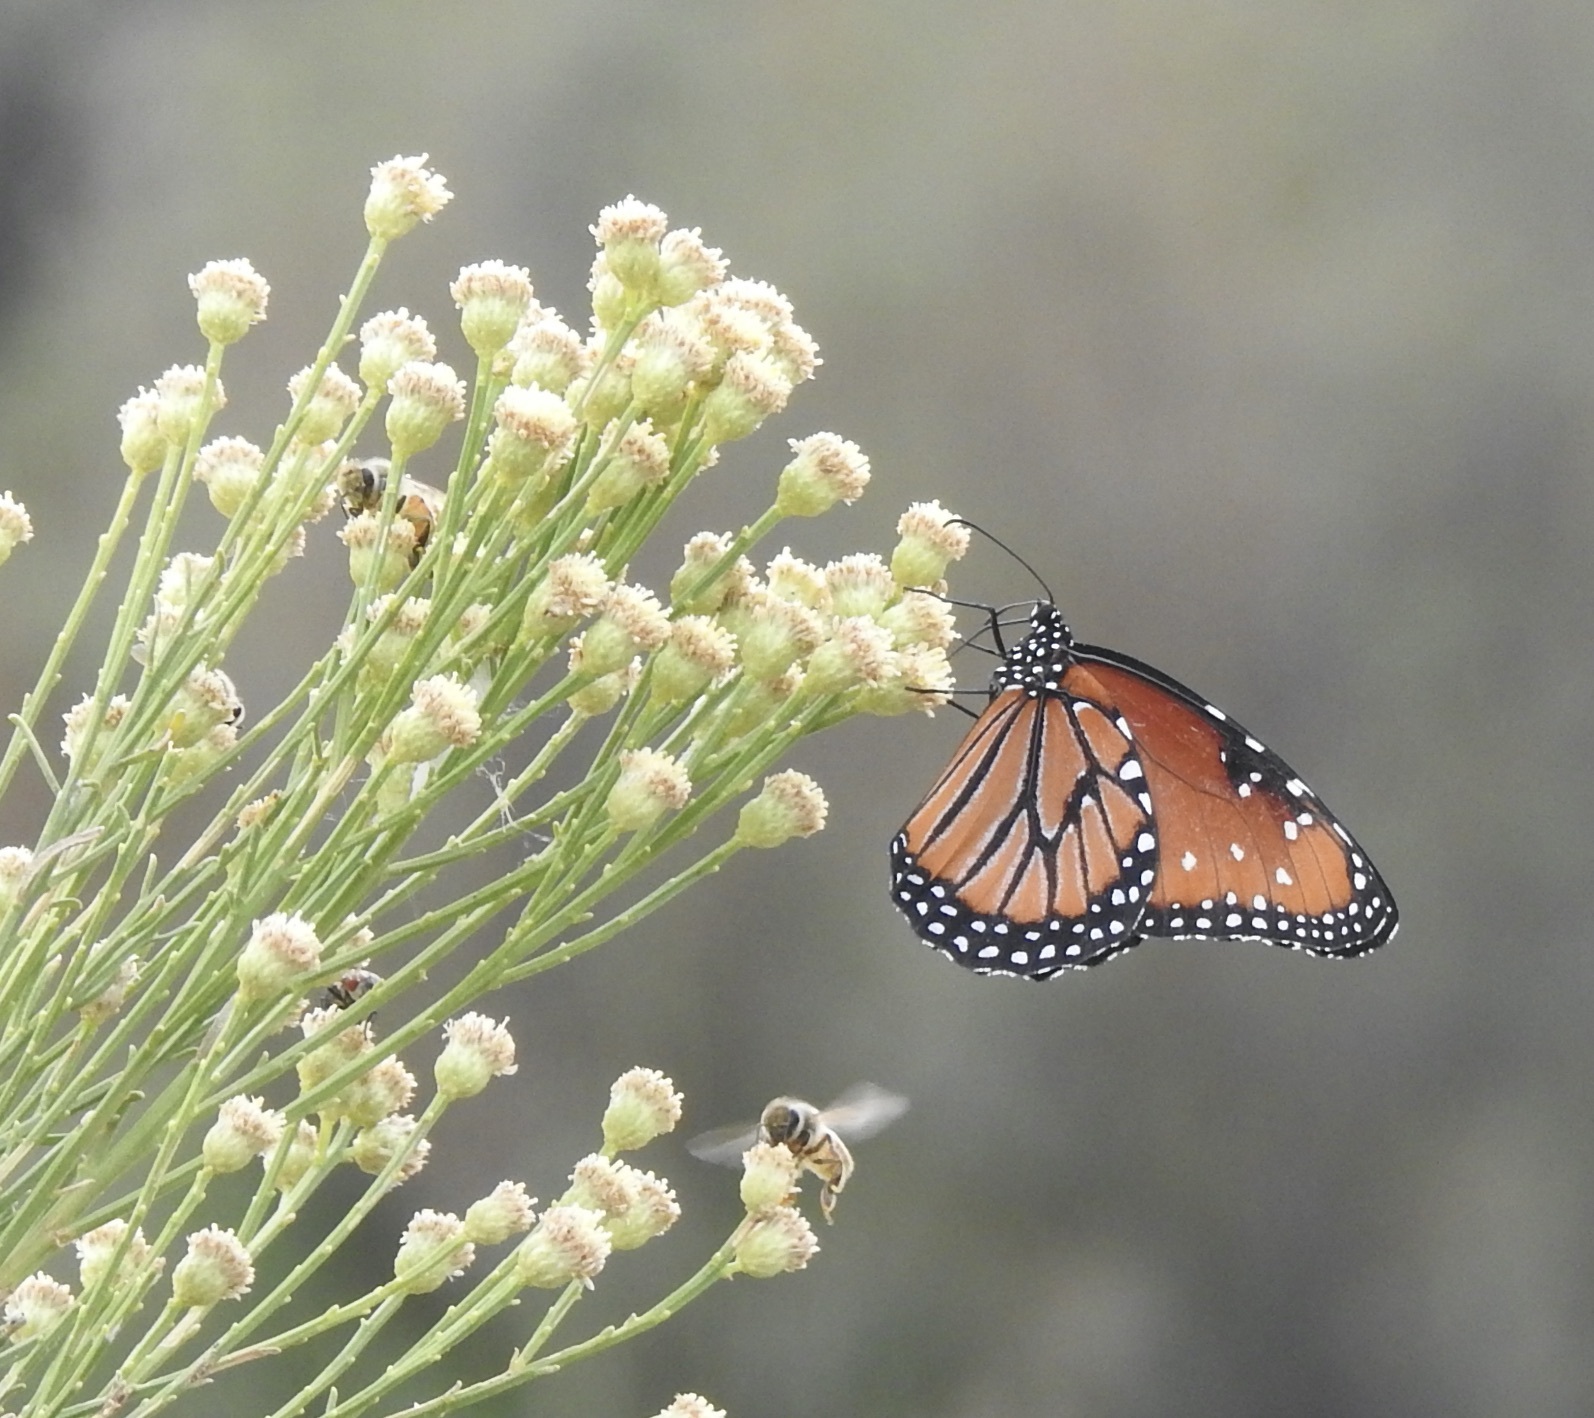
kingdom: Animalia
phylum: Arthropoda
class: Insecta
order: Lepidoptera
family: Nymphalidae
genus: Danaus
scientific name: Danaus gilippus
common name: Queen
